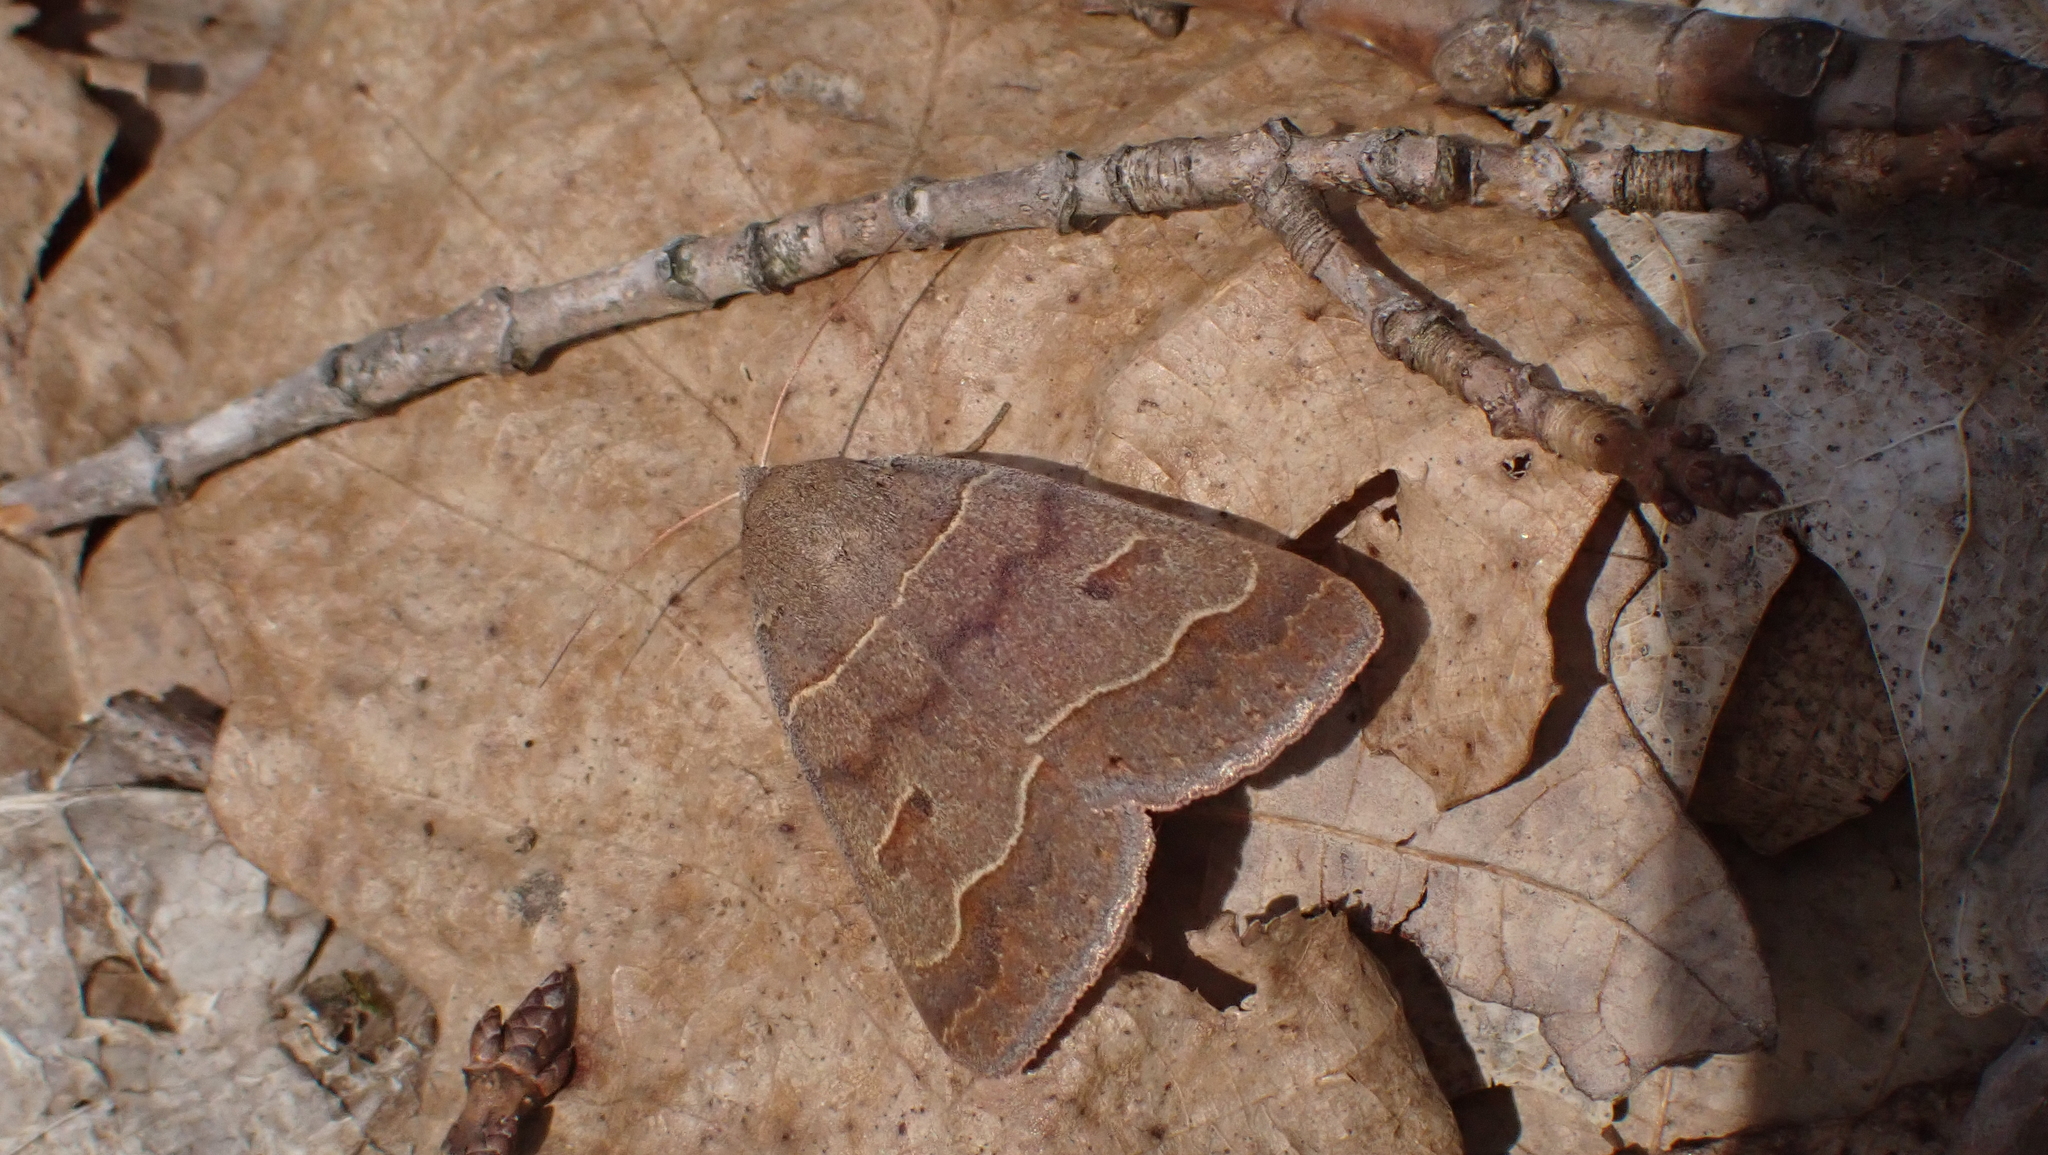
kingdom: Animalia
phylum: Arthropoda
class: Insecta
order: Lepidoptera
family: Erebidae
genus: Phoberia
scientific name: Phoberia atomaris
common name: Common oak moth
